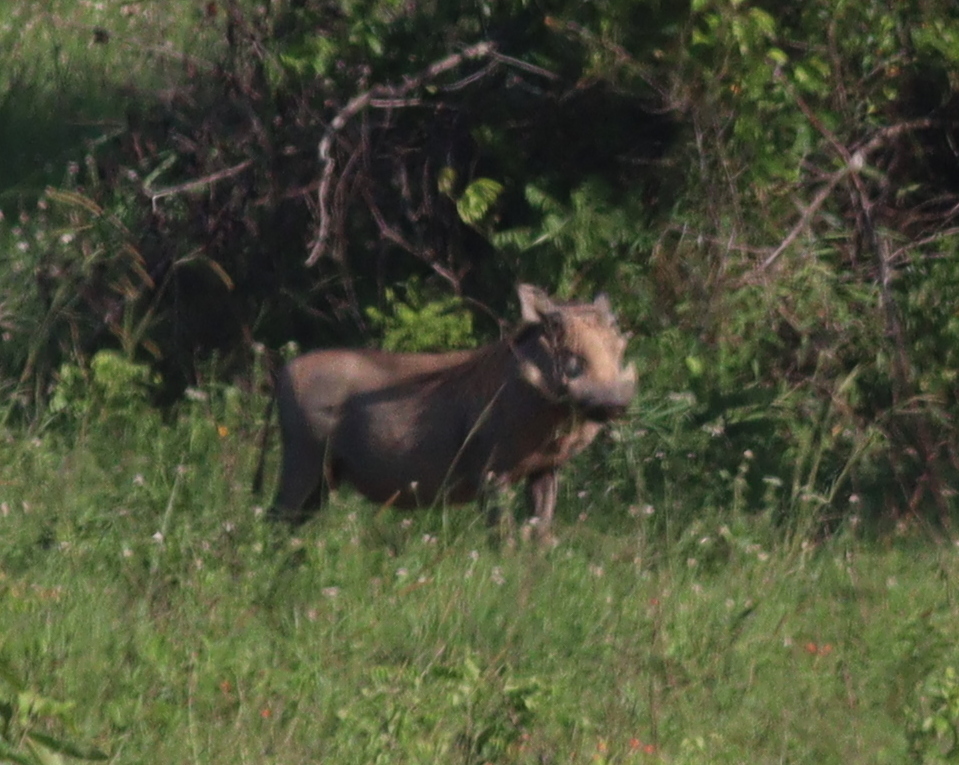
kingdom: Animalia
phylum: Chordata
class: Mammalia
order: Artiodactyla
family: Suidae
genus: Phacochoerus
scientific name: Phacochoerus africanus
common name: Common warthog
